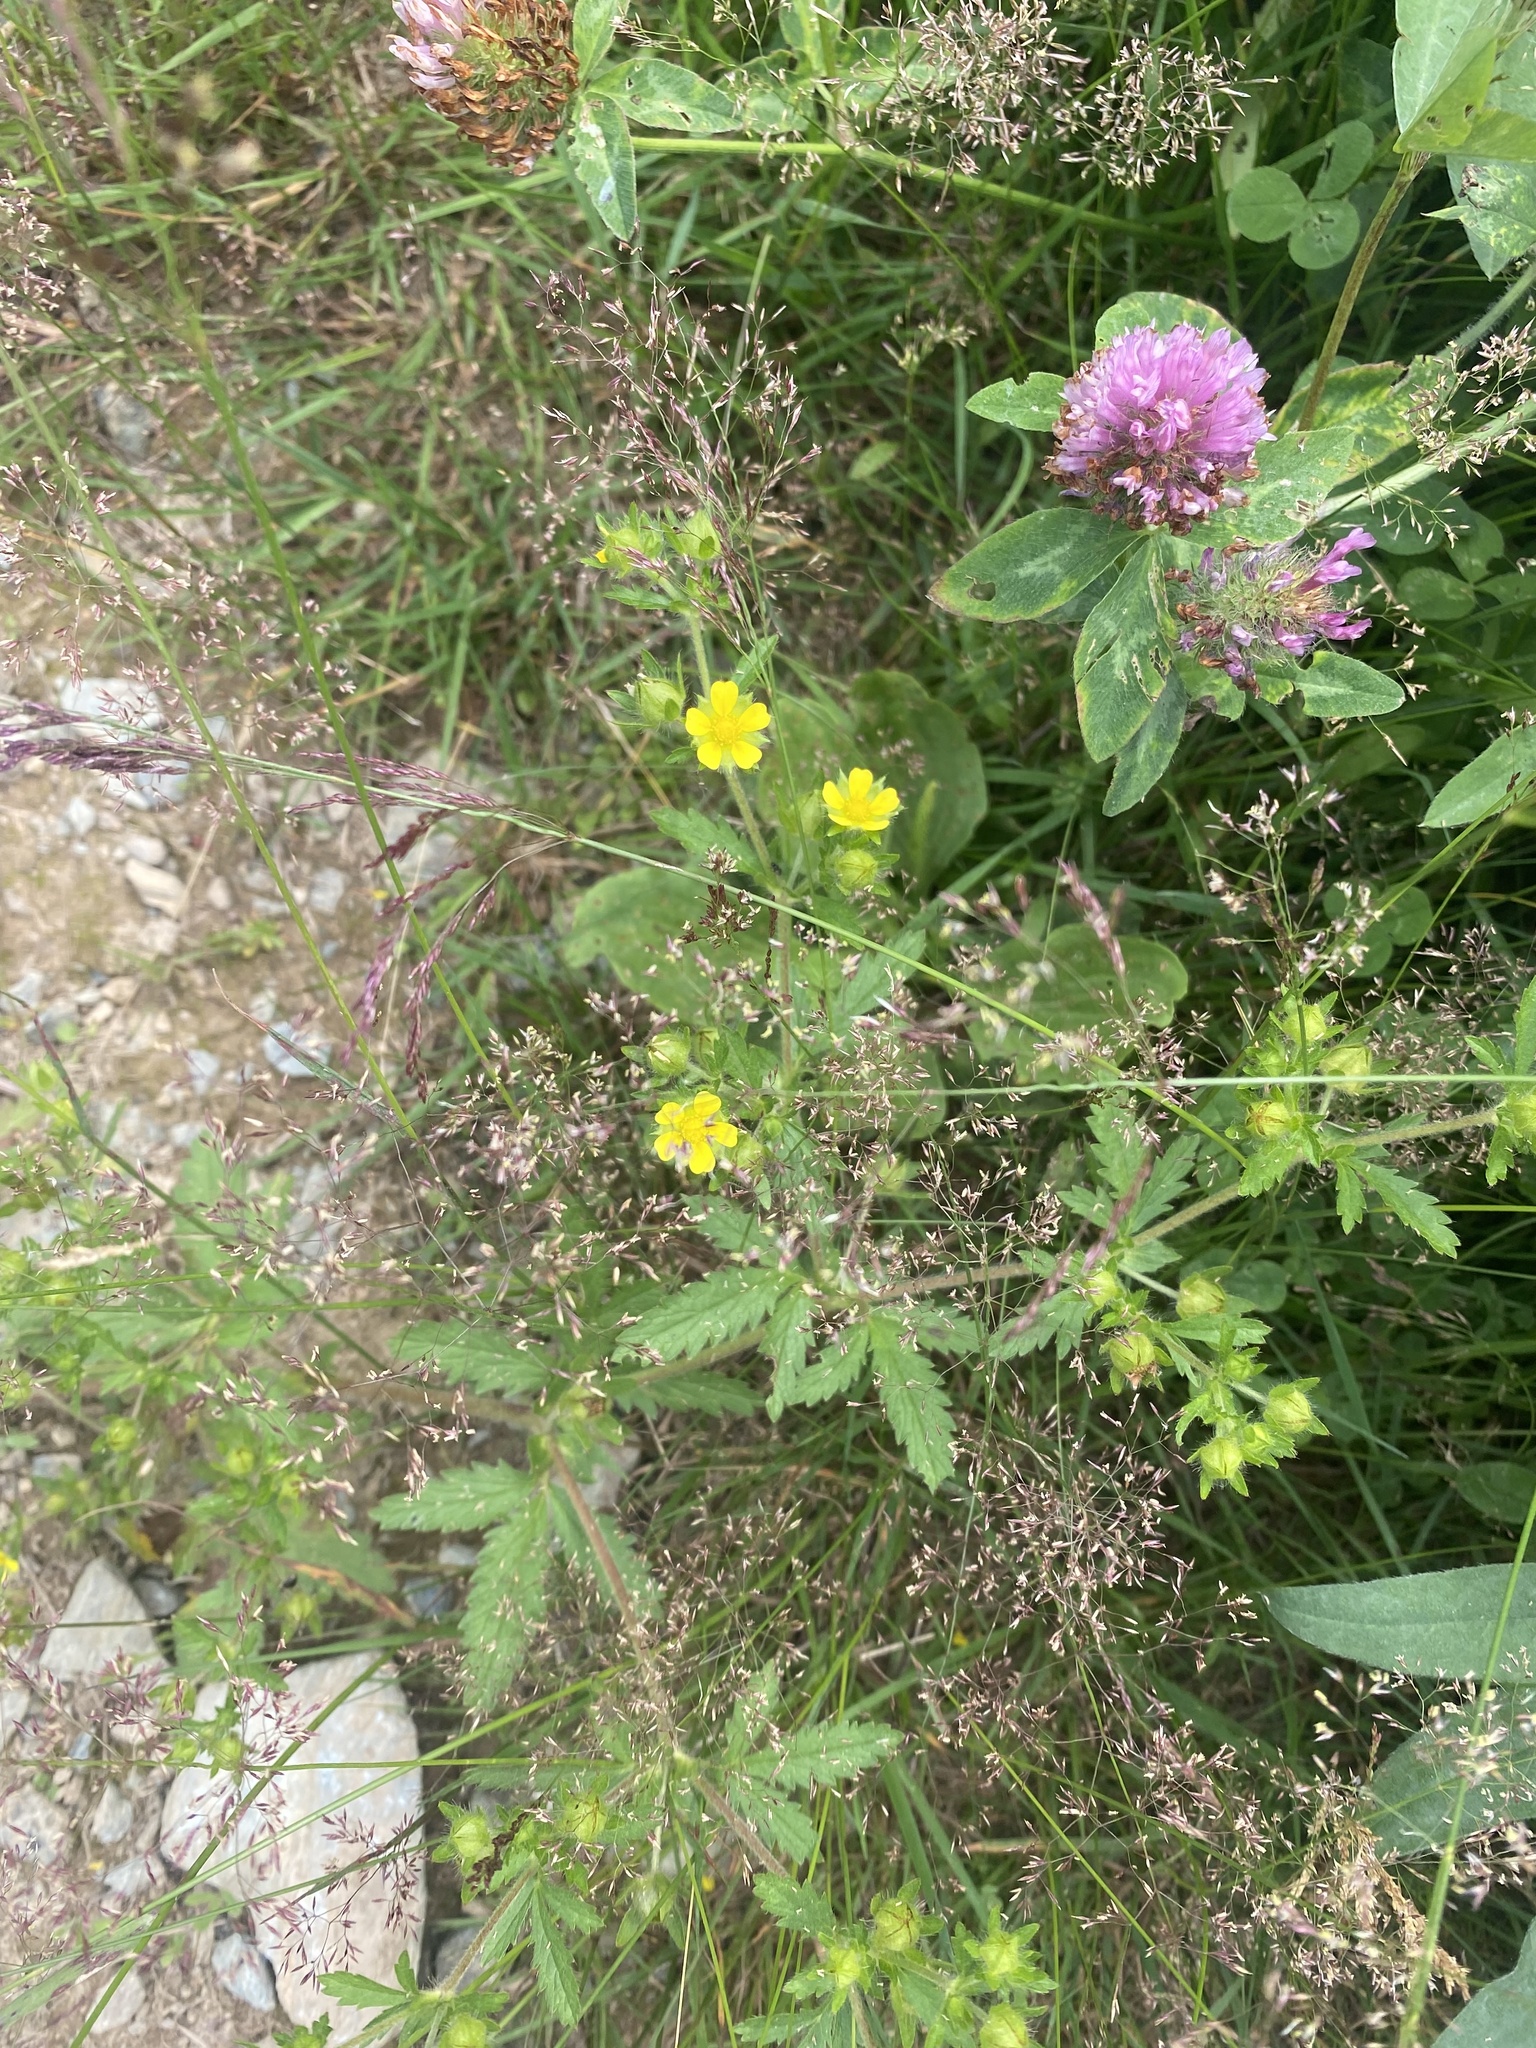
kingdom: Plantae
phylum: Tracheophyta
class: Magnoliopsida
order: Rosales
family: Rosaceae
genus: Potentilla
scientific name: Potentilla norvegica
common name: Ternate-leaved cinquefoil
